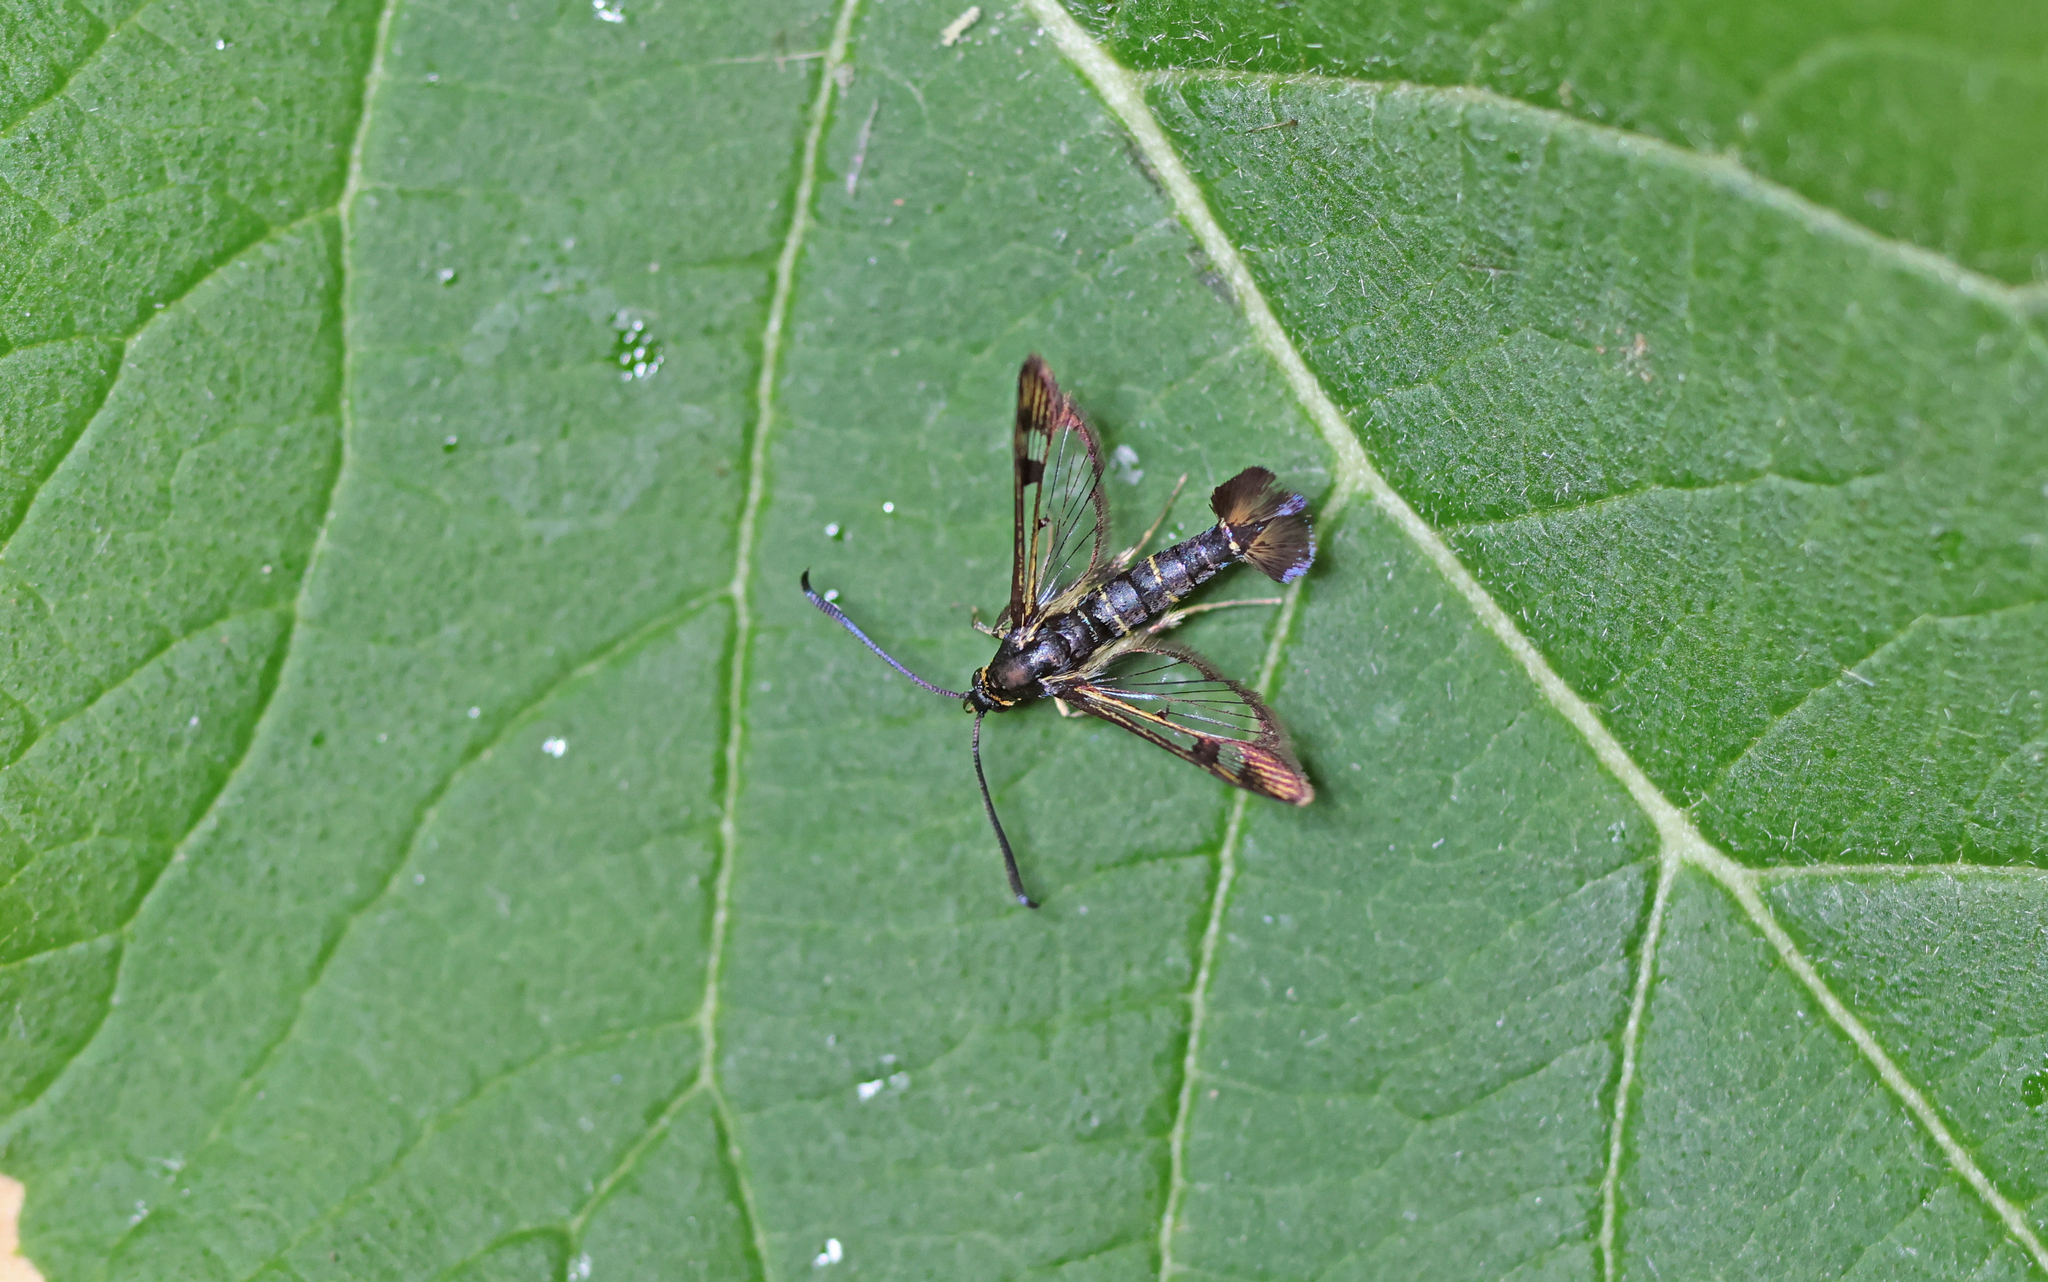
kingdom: Animalia
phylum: Arthropoda
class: Insecta
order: Lepidoptera
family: Sesiidae
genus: Synanthedon
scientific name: Synanthedon tipuliformis
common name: Currant clearwing
